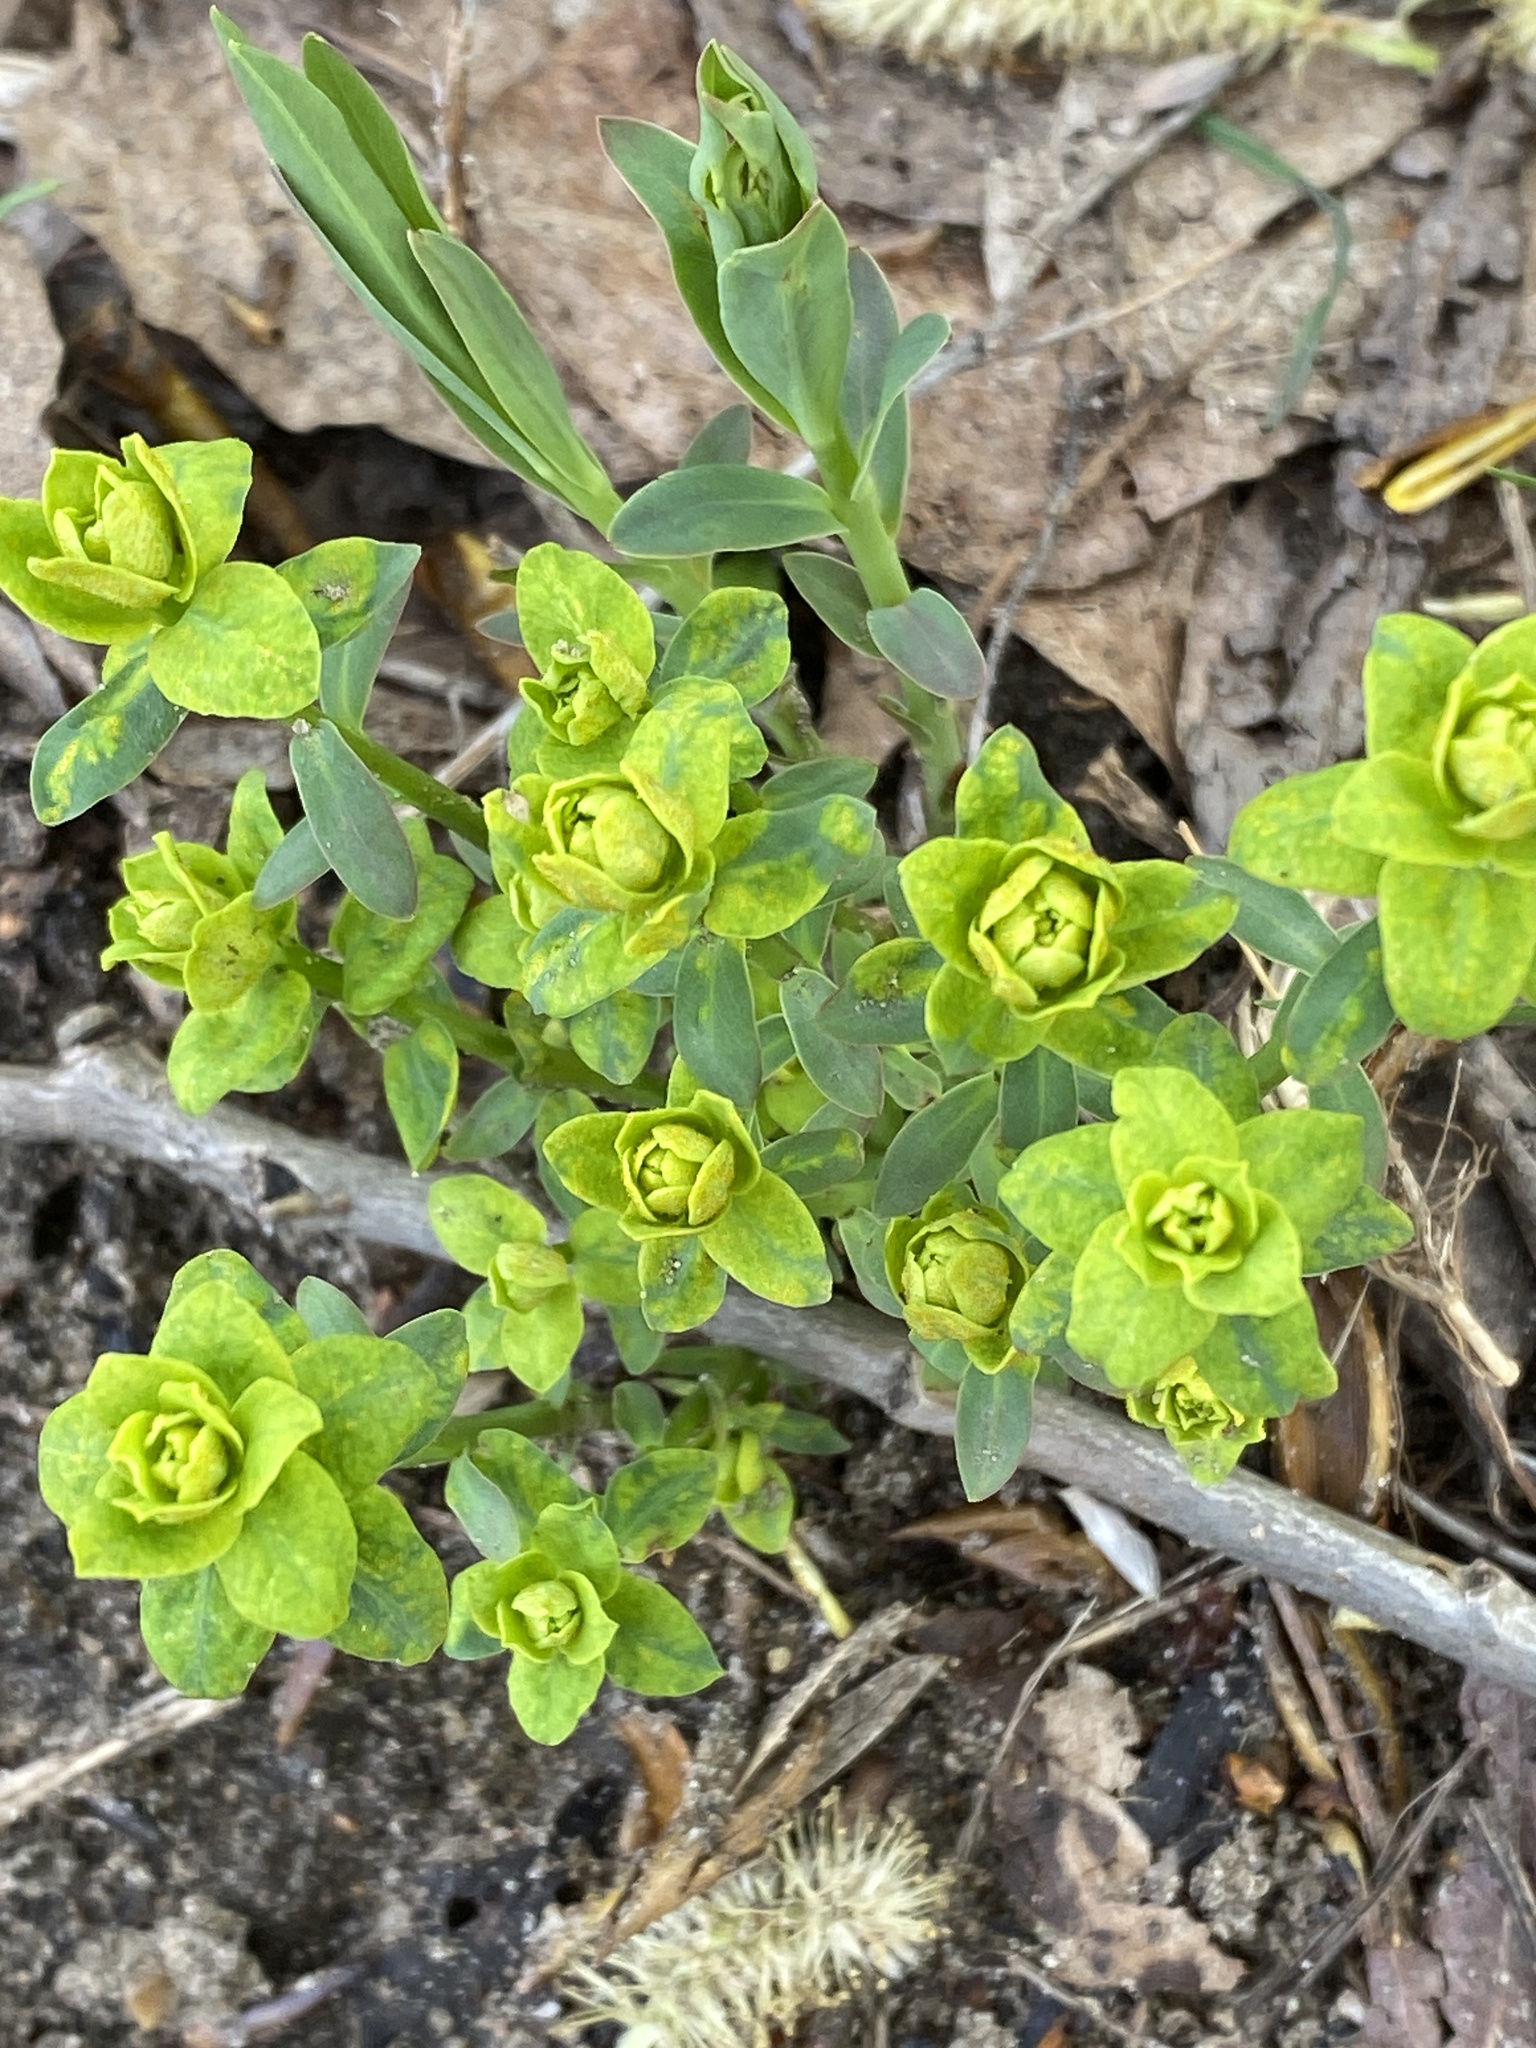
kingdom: Plantae
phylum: Tracheophyta
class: Magnoliopsida
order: Malpighiales
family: Euphorbiaceae
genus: Euphorbia
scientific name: Euphorbia virgata
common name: Leafy spurge
